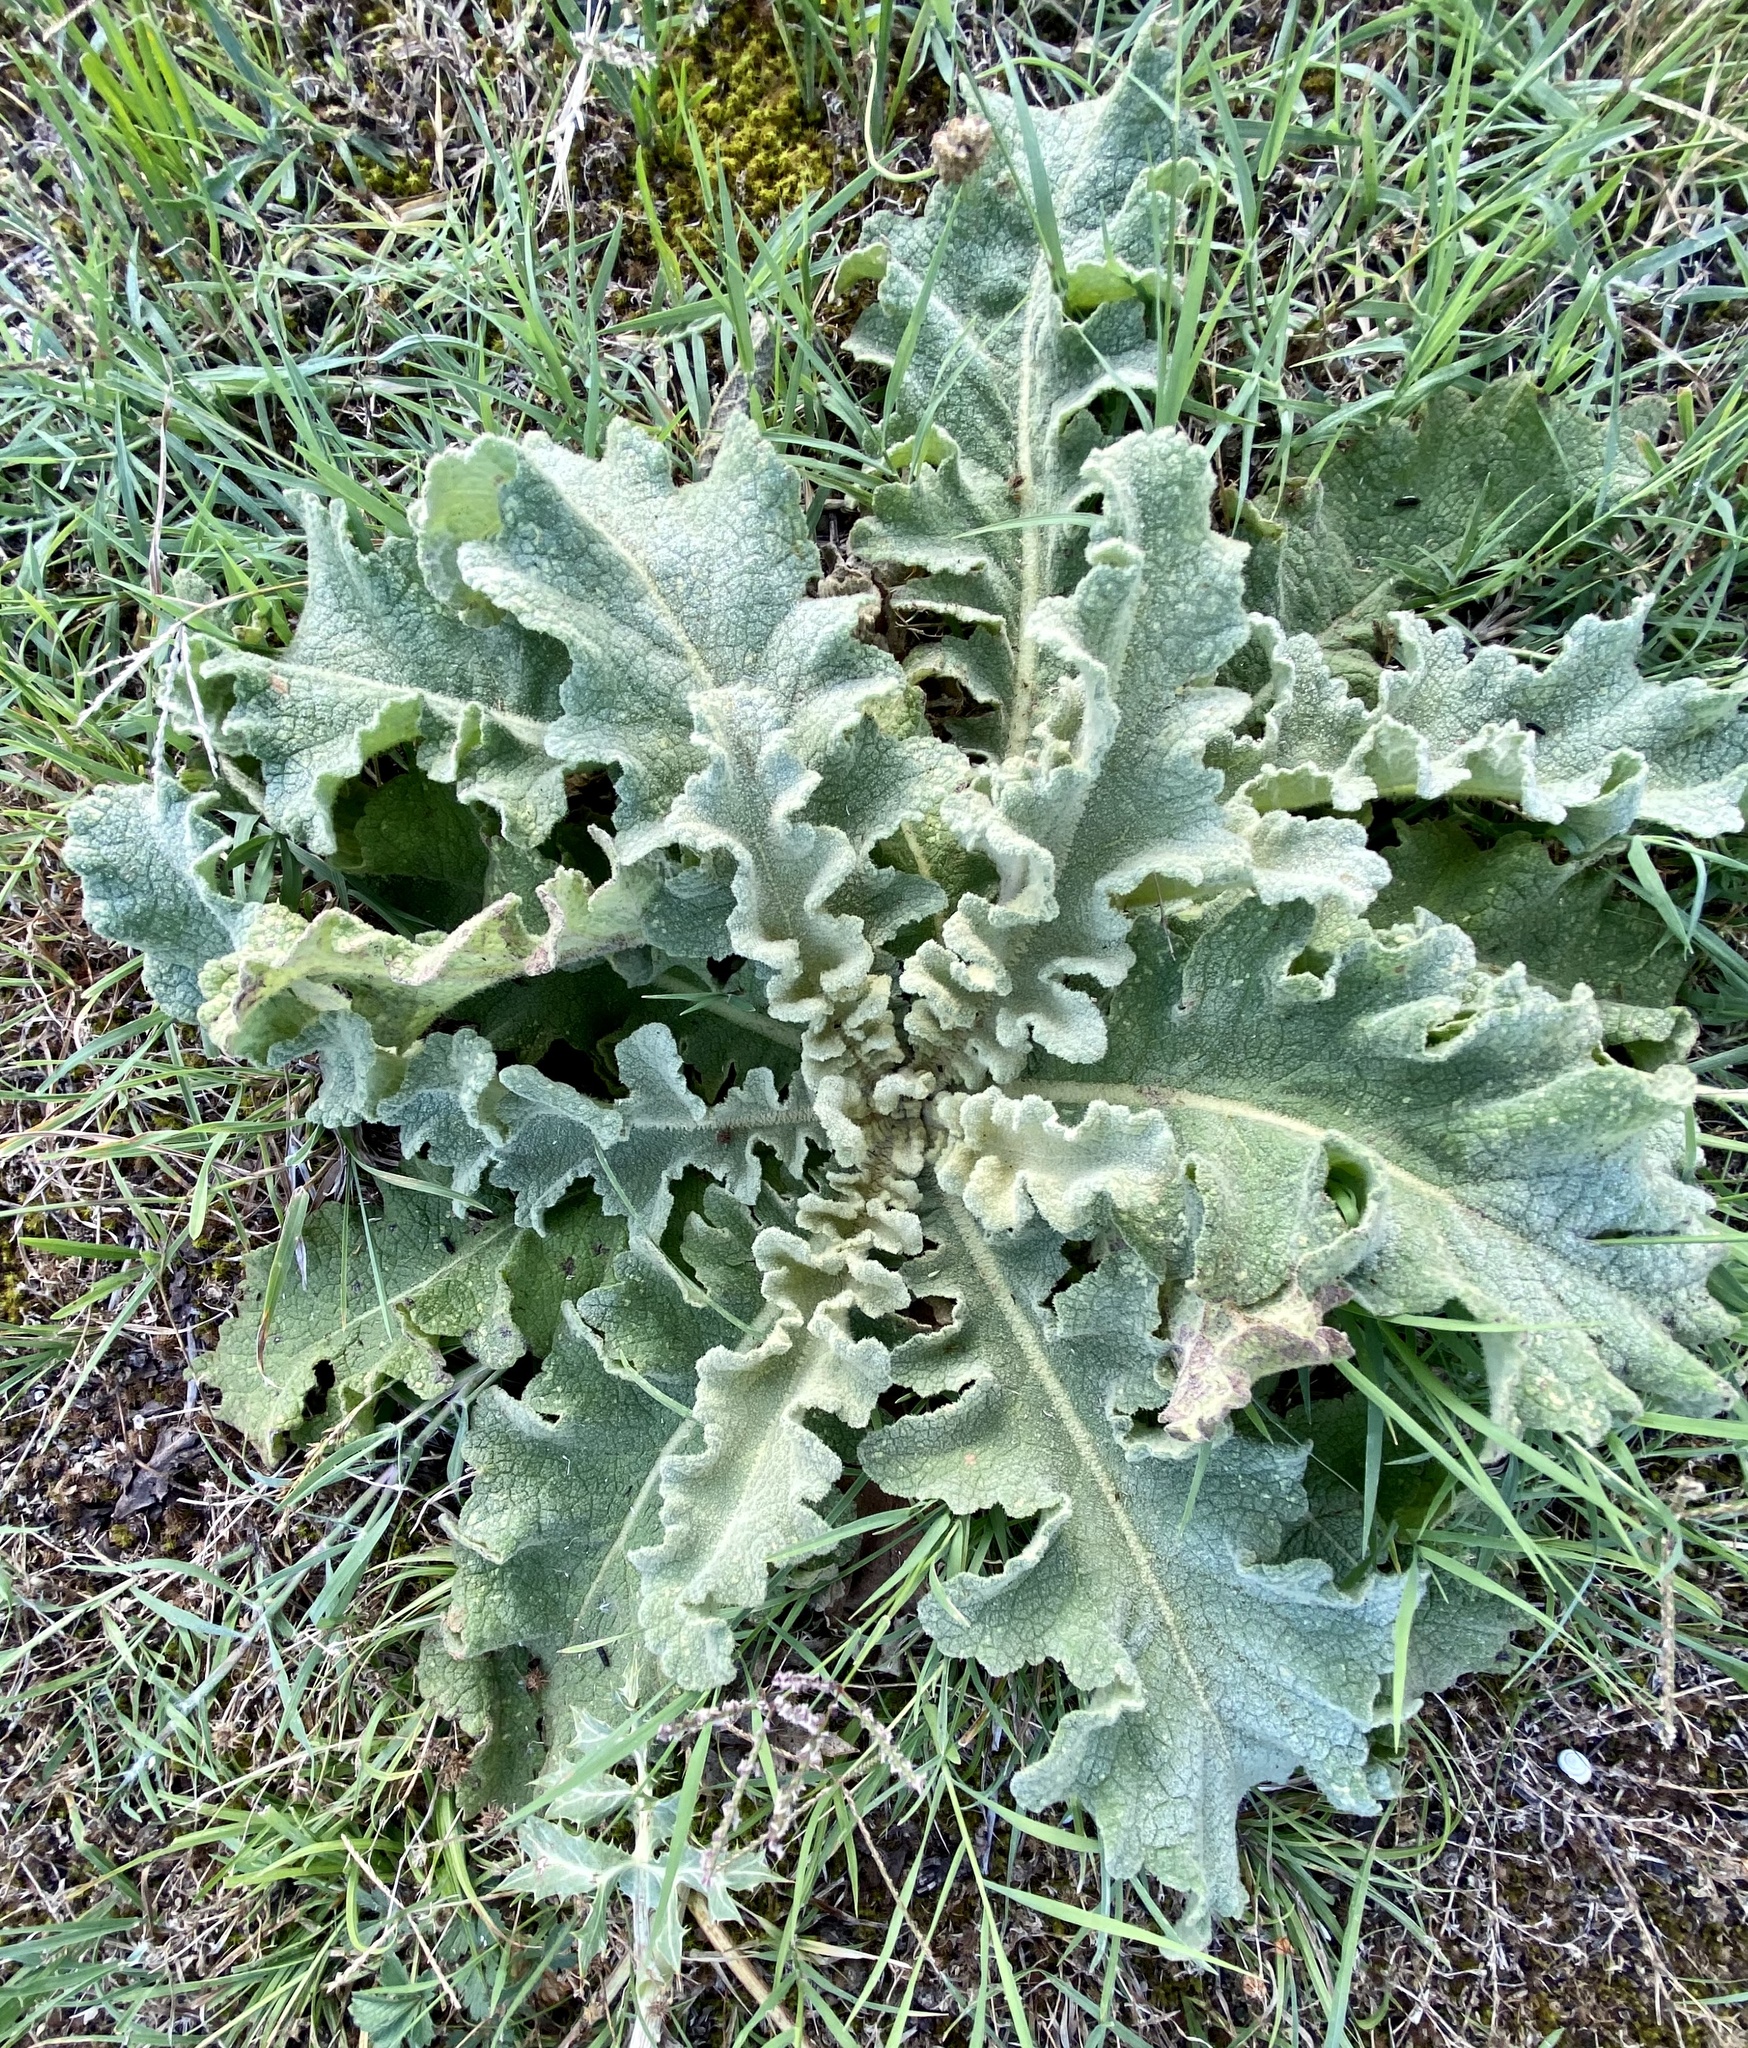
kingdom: Plantae
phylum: Tracheophyta
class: Magnoliopsida
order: Lamiales
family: Scrophulariaceae
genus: Verbascum
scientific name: Verbascum sinuatum
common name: Wavyleaf mullein
